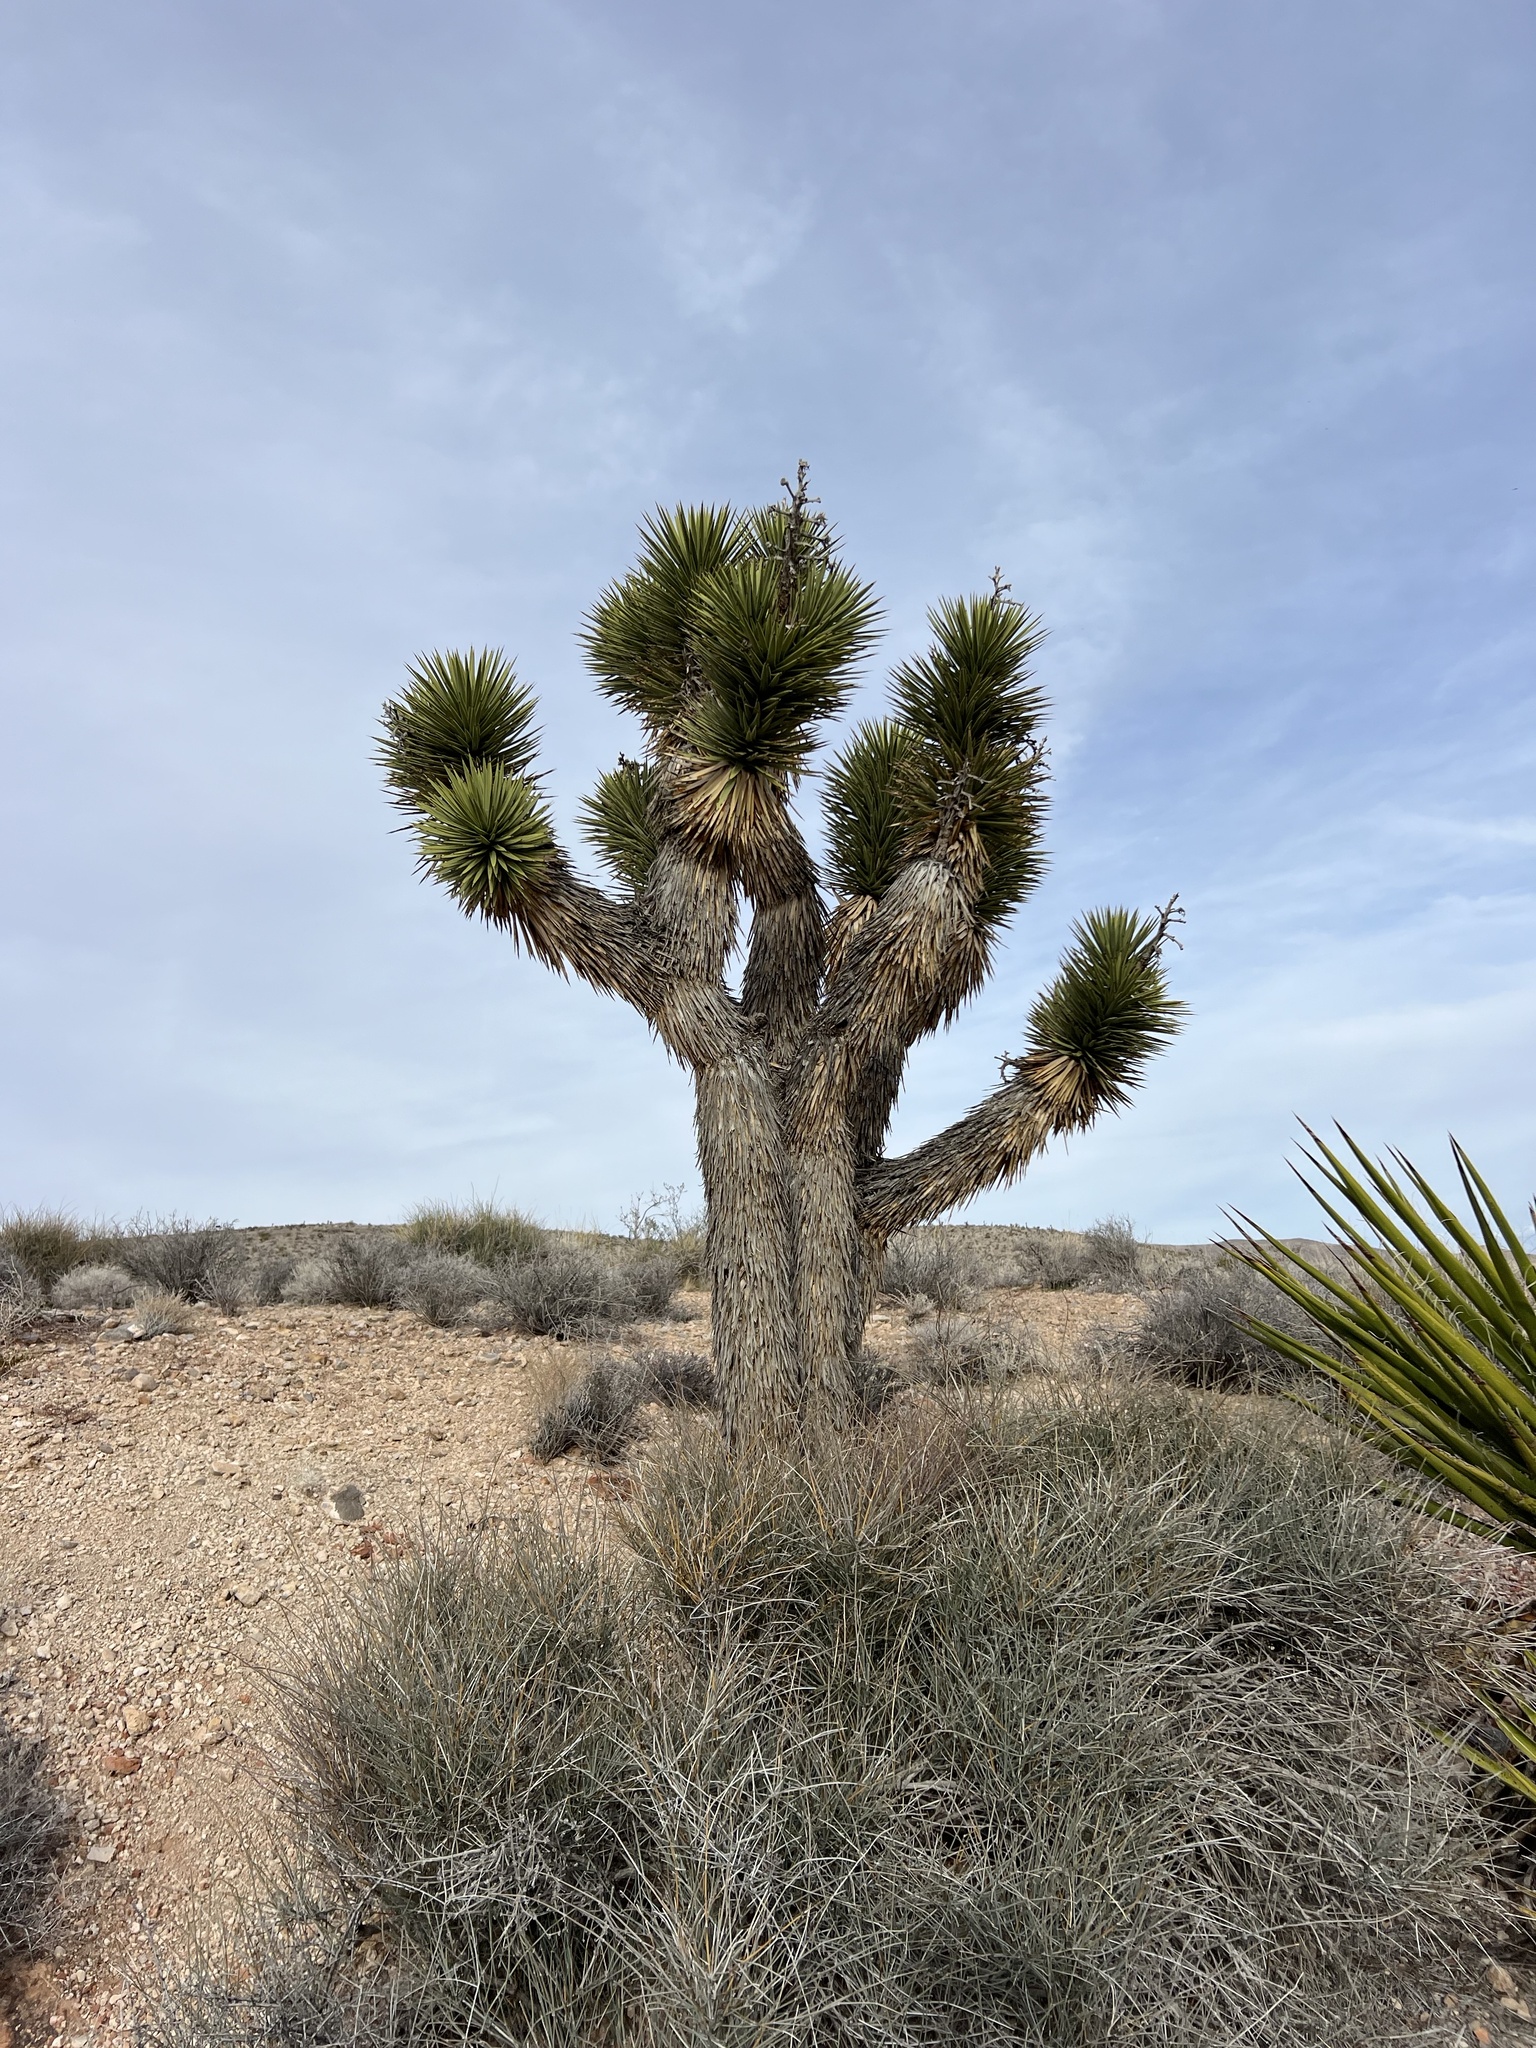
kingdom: Plantae
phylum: Tracheophyta
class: Liliopsida
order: Asparagales
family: Asparagaceae
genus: Yucca
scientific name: Yucca brevifolia
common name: Joshua tree
